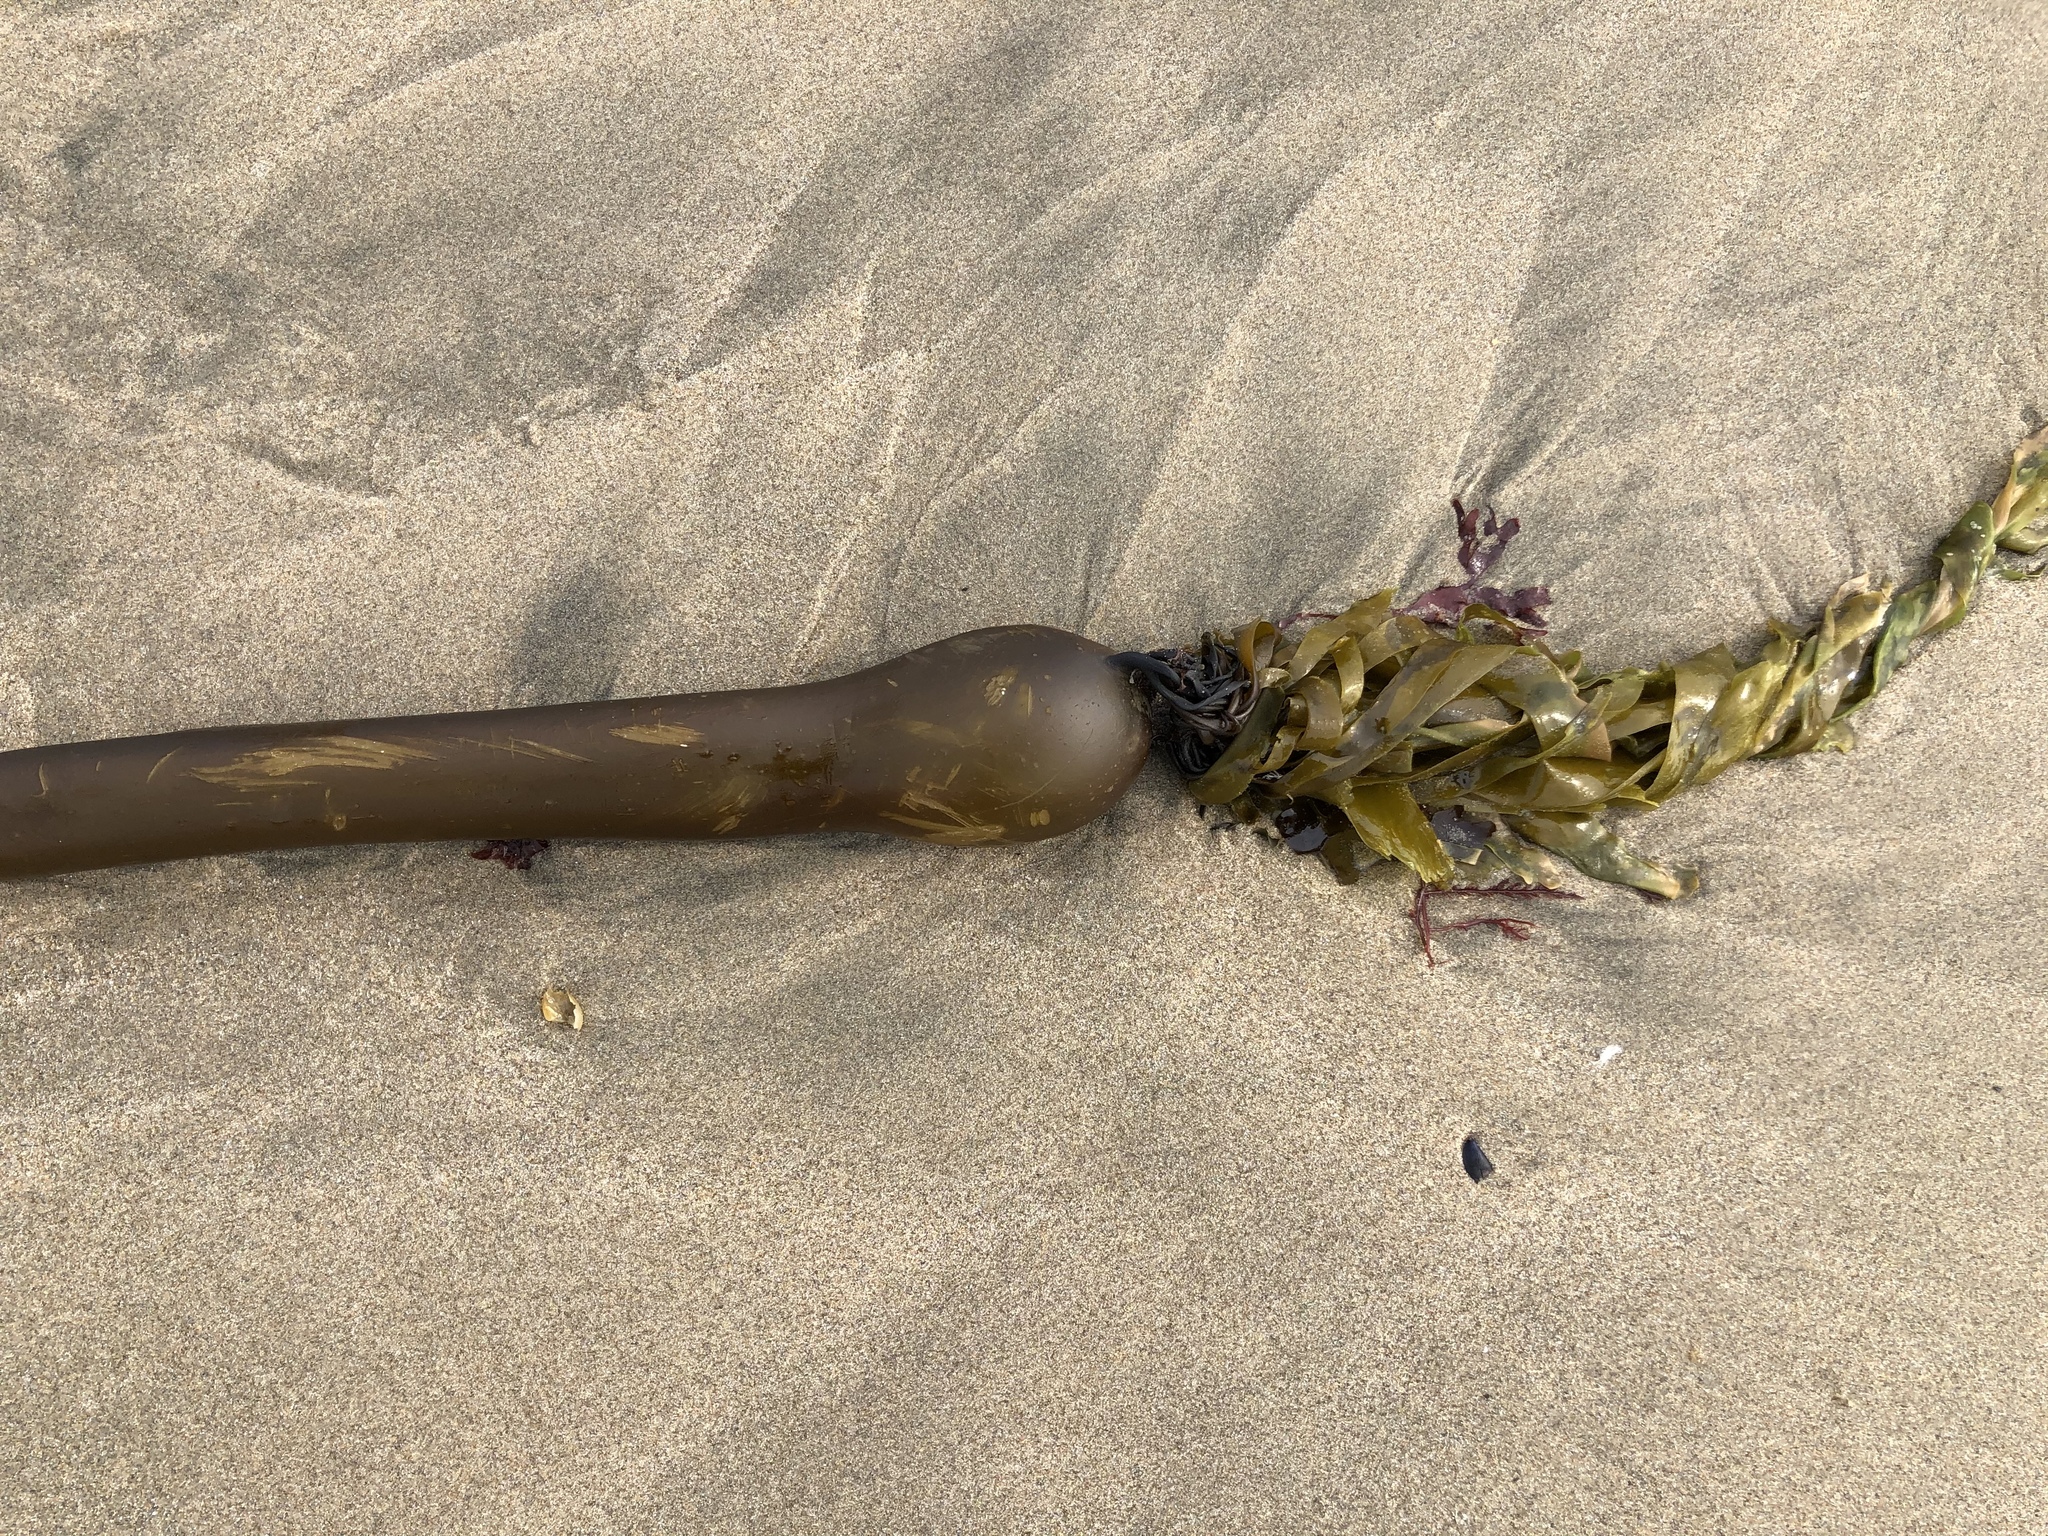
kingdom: Chromista
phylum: Ochrophyta
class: Phaeophyceae
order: Laminariales
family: Laminariaceae
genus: Nereocystis
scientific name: Nereocystis luetkeana
